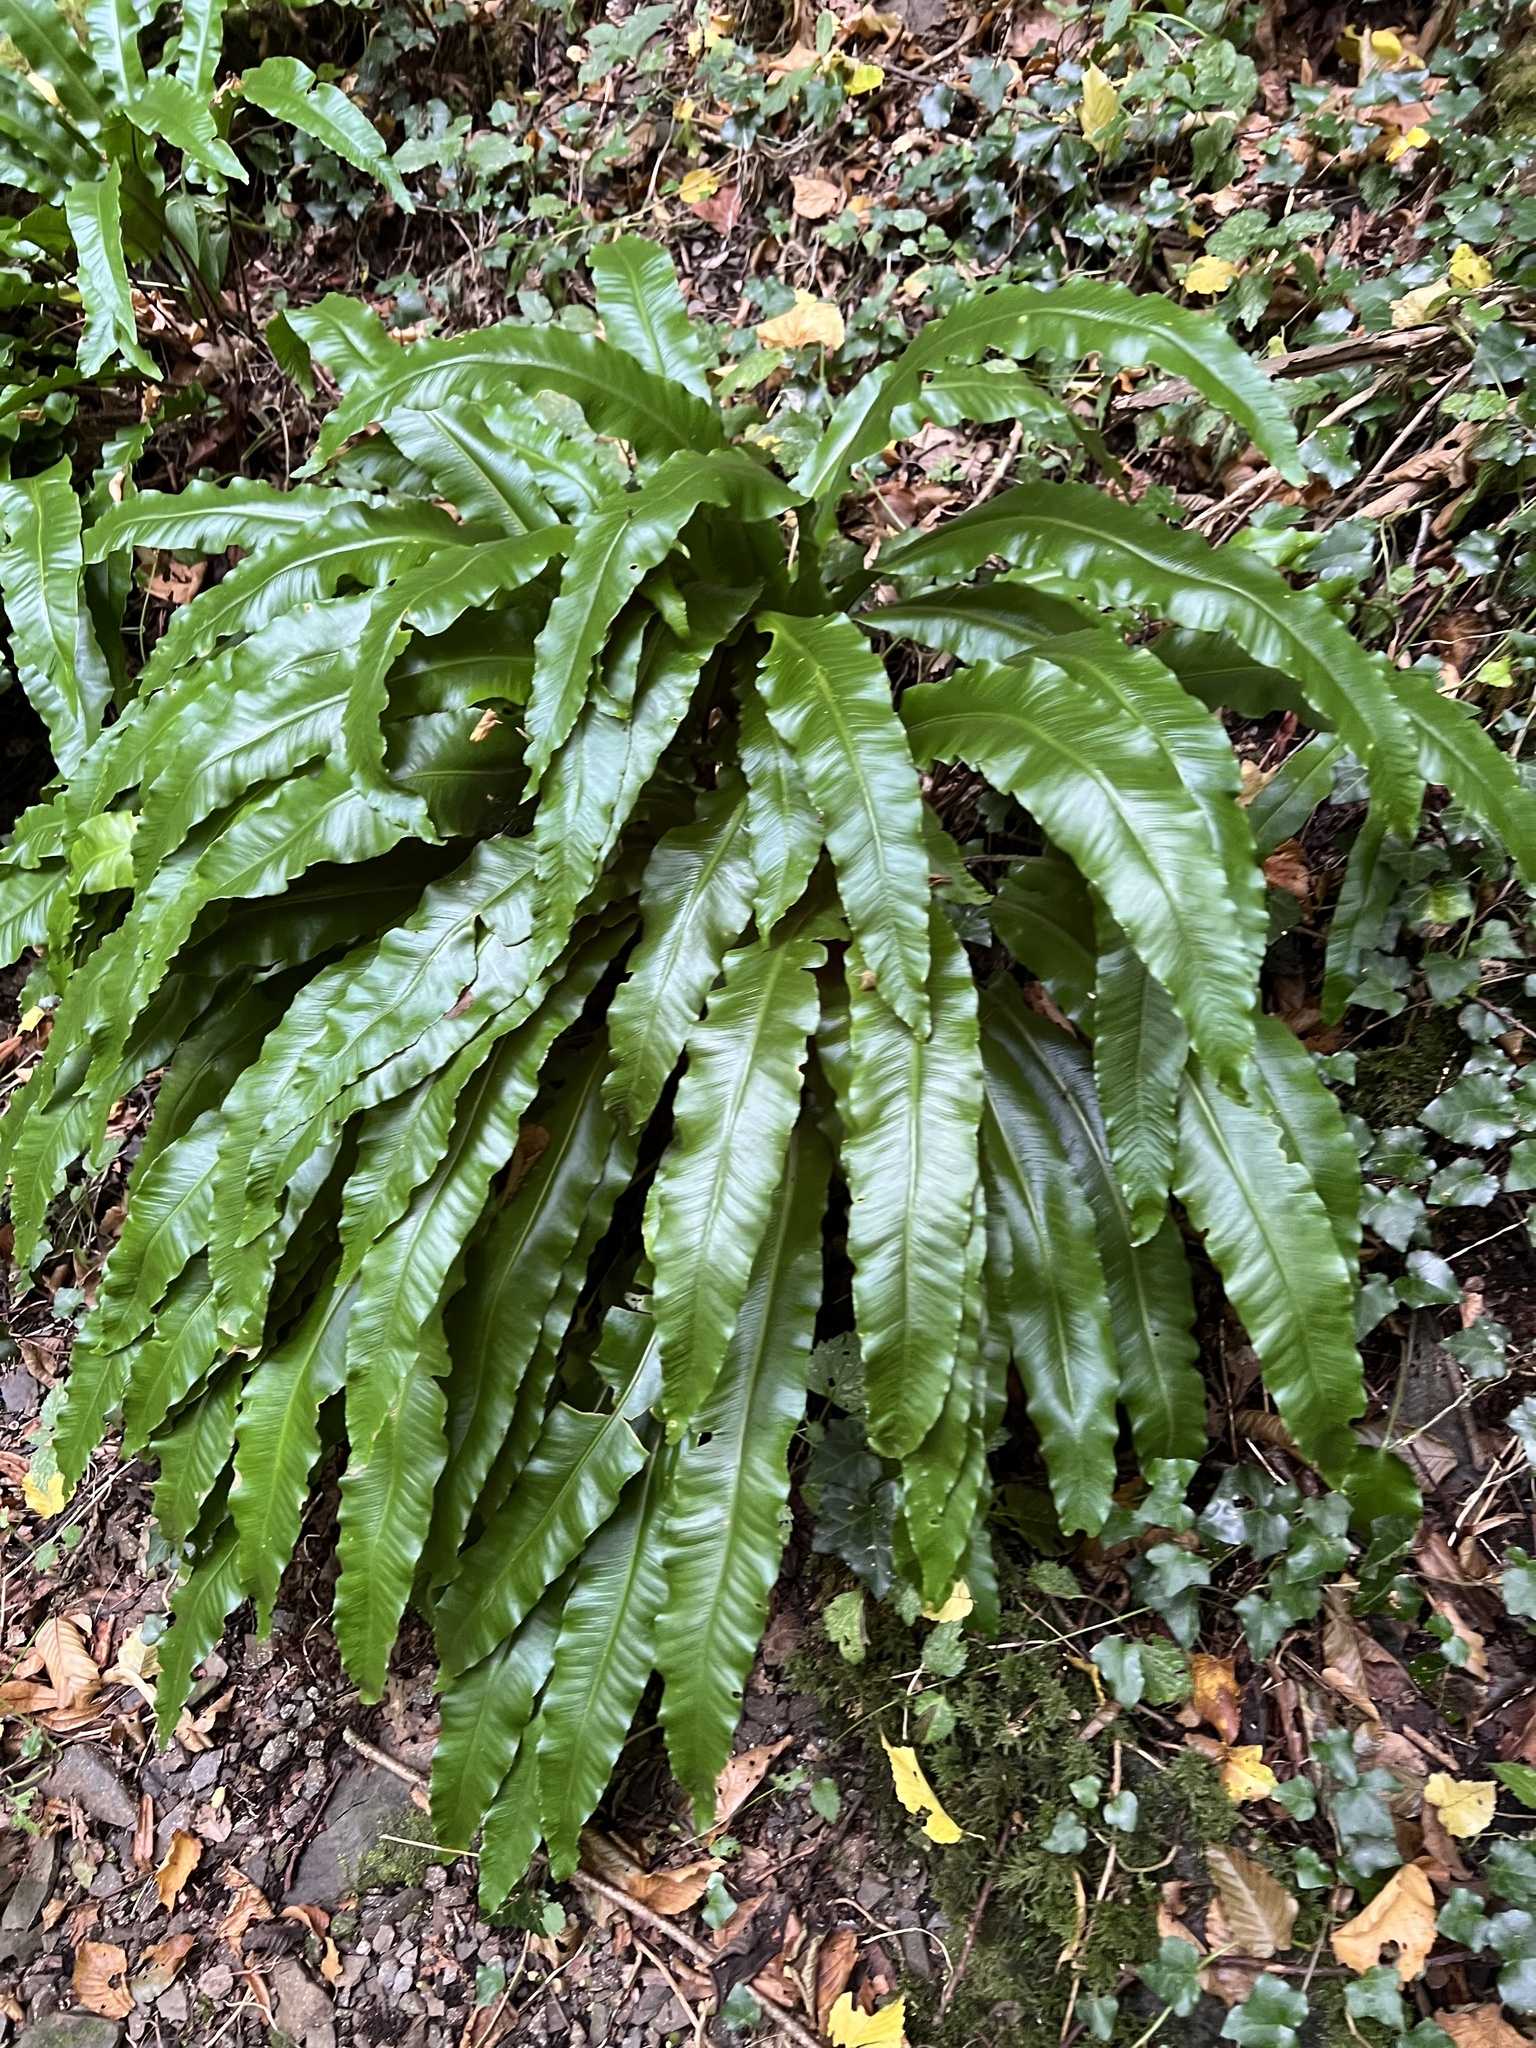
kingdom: Plantae
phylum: Tracheophyta
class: Polypodiopsida
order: Polypodiales
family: Aspleniaceae
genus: Asplenium
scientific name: Asplenium scolopendrium
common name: Hart's-tongue fern
